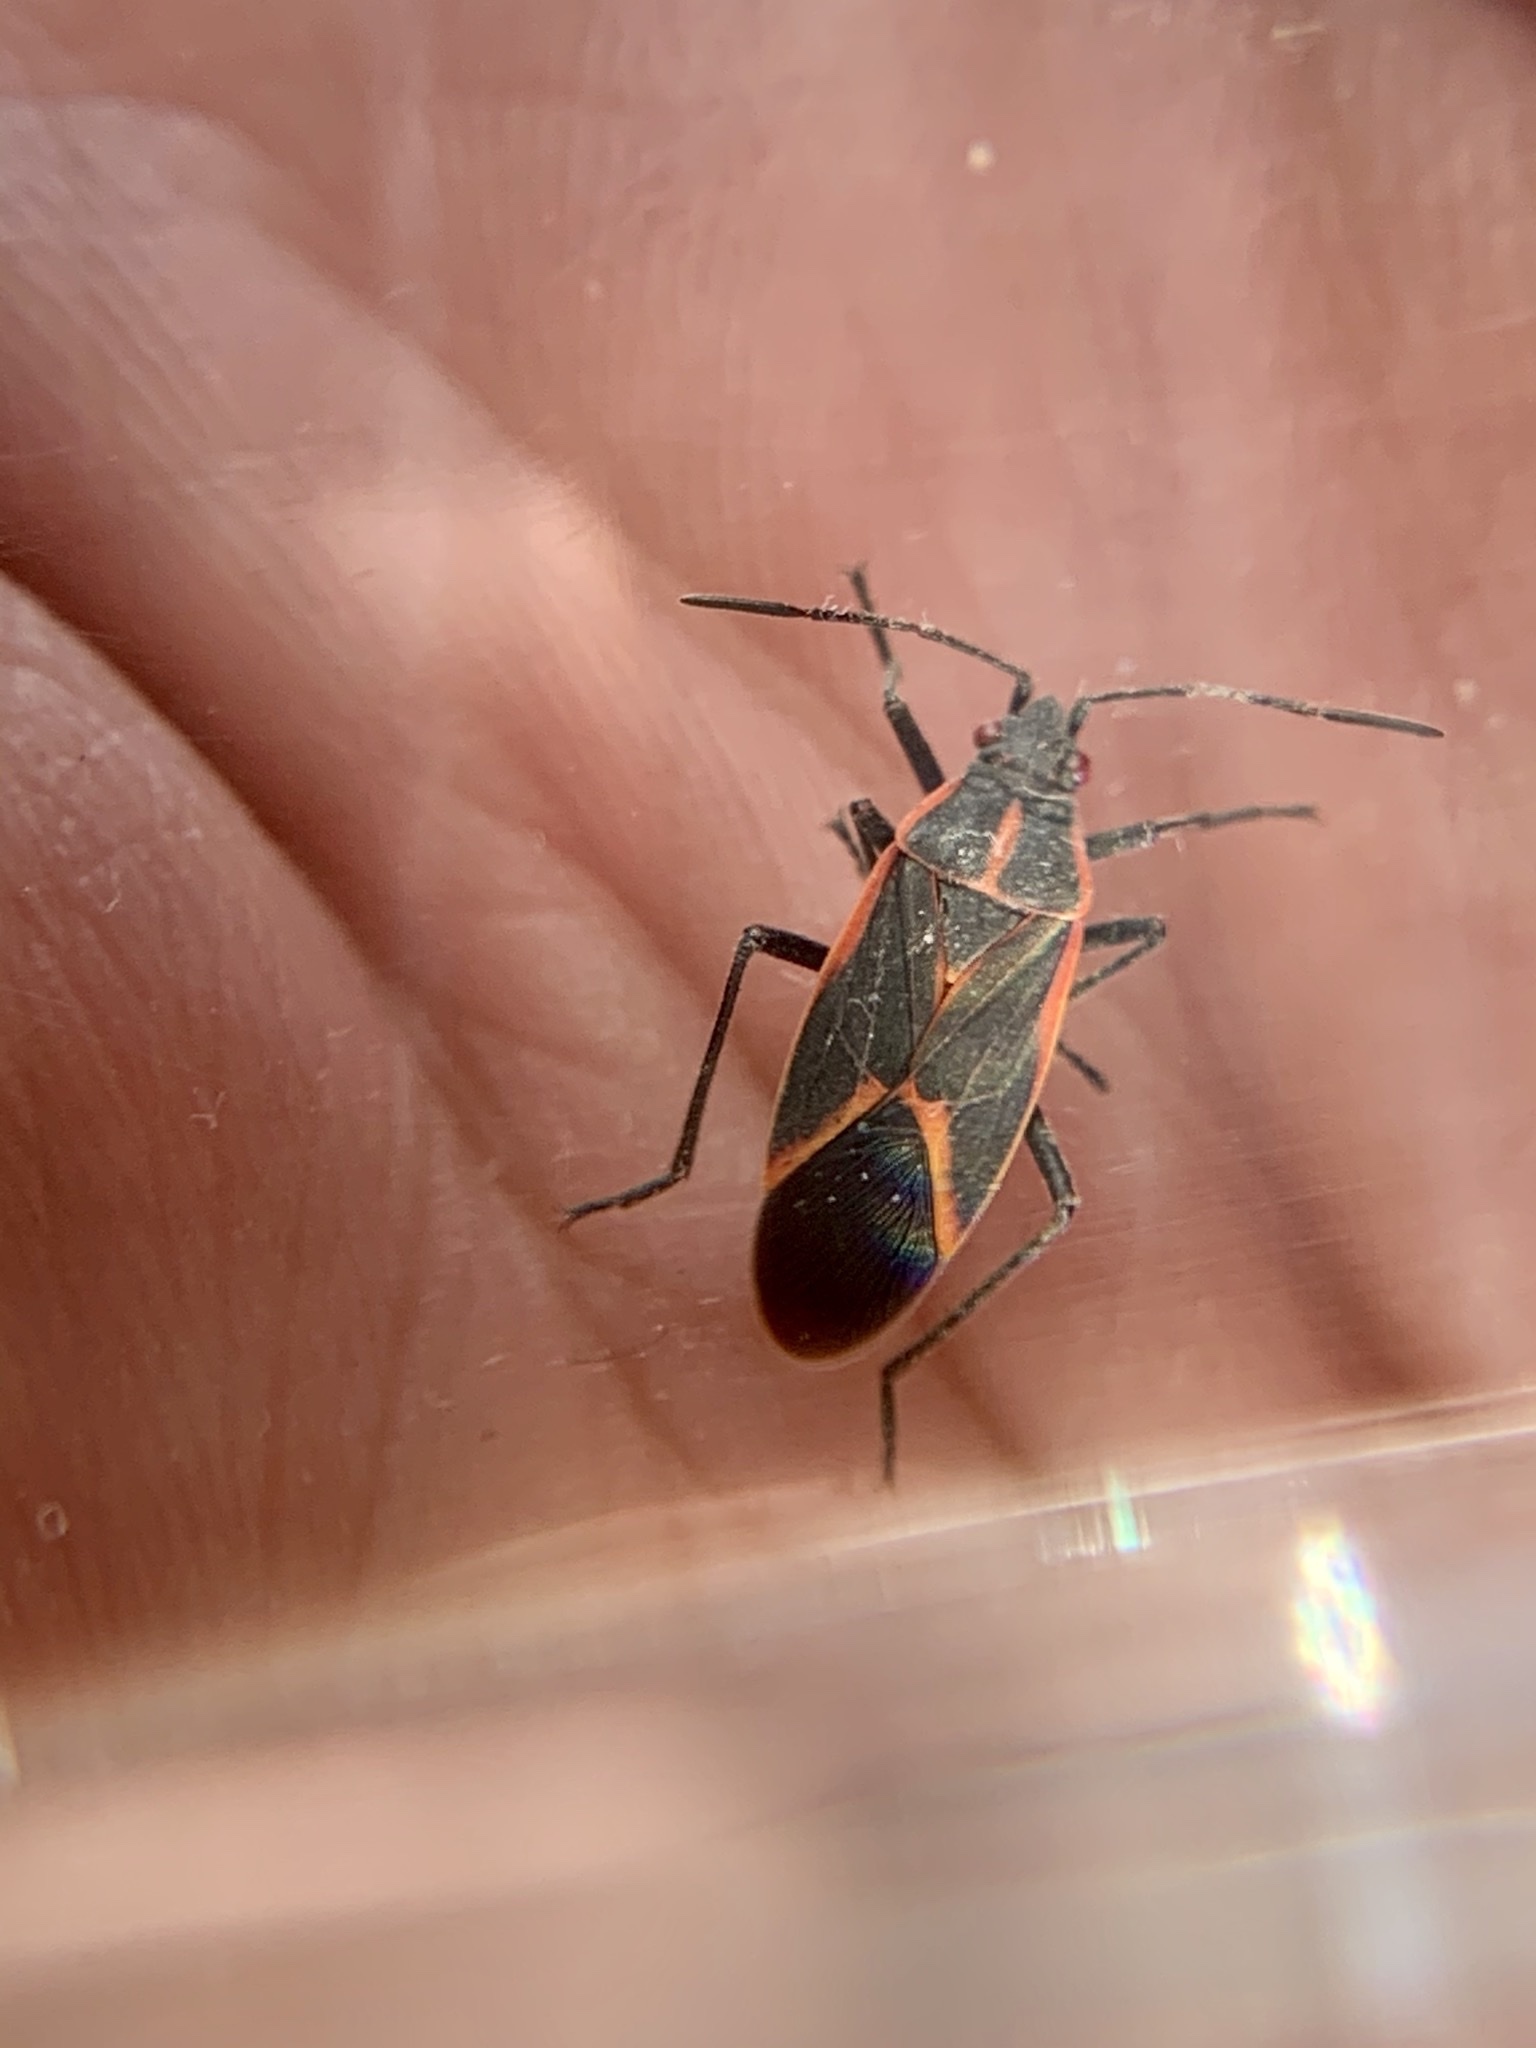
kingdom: Animalia
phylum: Arthropoda
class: Insecta
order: Hemiptera
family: Rhopalidae
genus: Boisea
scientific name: Boisea trivittata
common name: Boxelder bug
